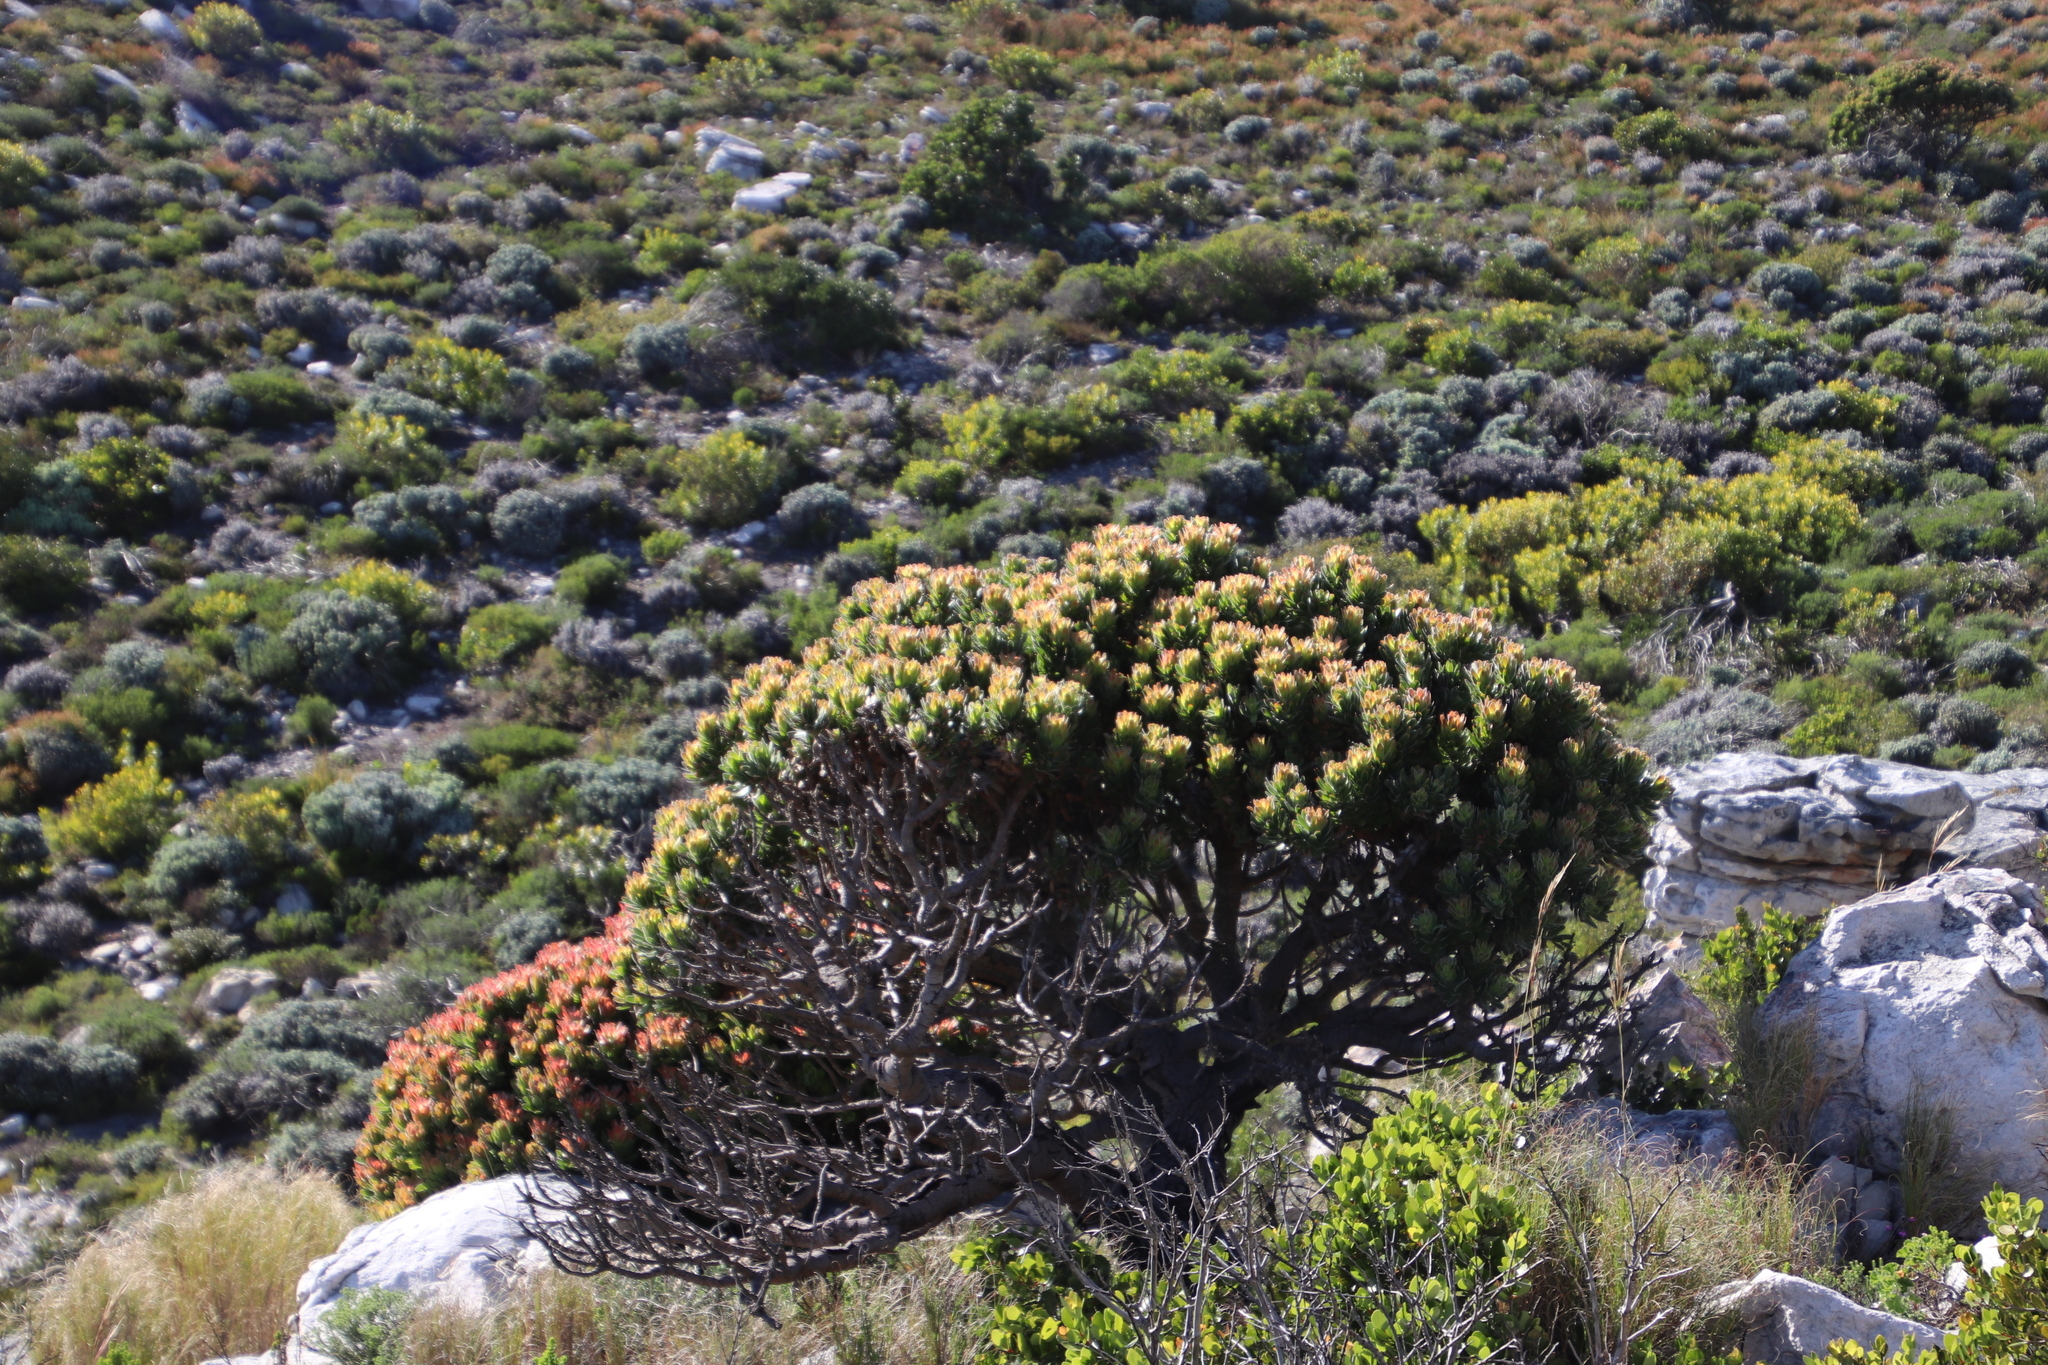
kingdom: Plantae
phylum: Tracheophyta
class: Magnoliopsida
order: Proteales
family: Proteaceae
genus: Mimetes
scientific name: Mimetes fimbriifolius
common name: Fringed bottlebrush
